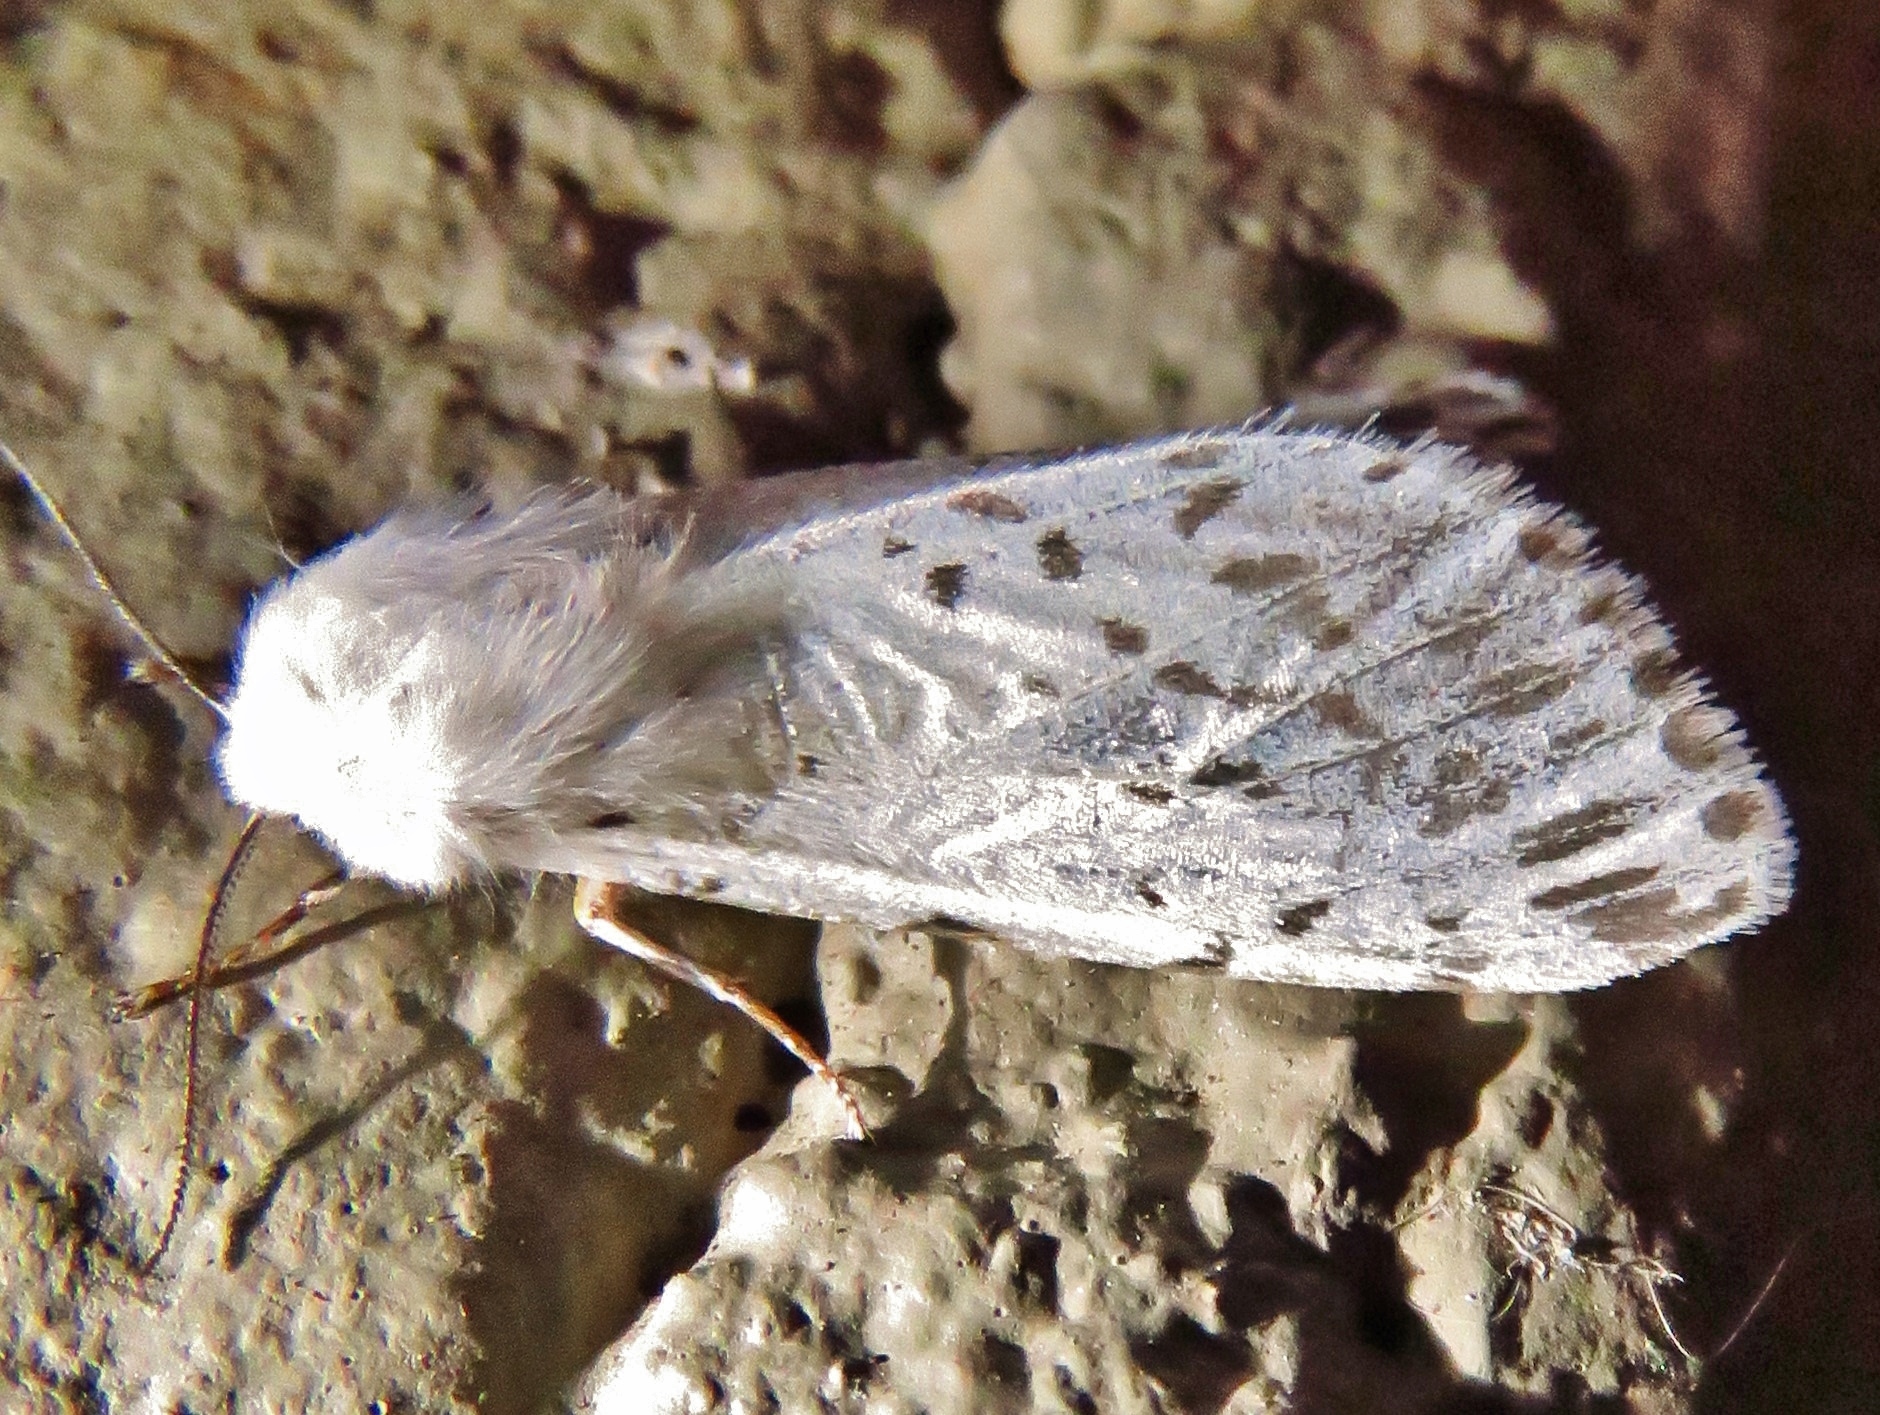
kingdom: Animalia
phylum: Arthropoda
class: Insecta
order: Lepidoptera
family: Erebidae
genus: Hyphantria
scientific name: Hyphantria cunea
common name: American white moth
